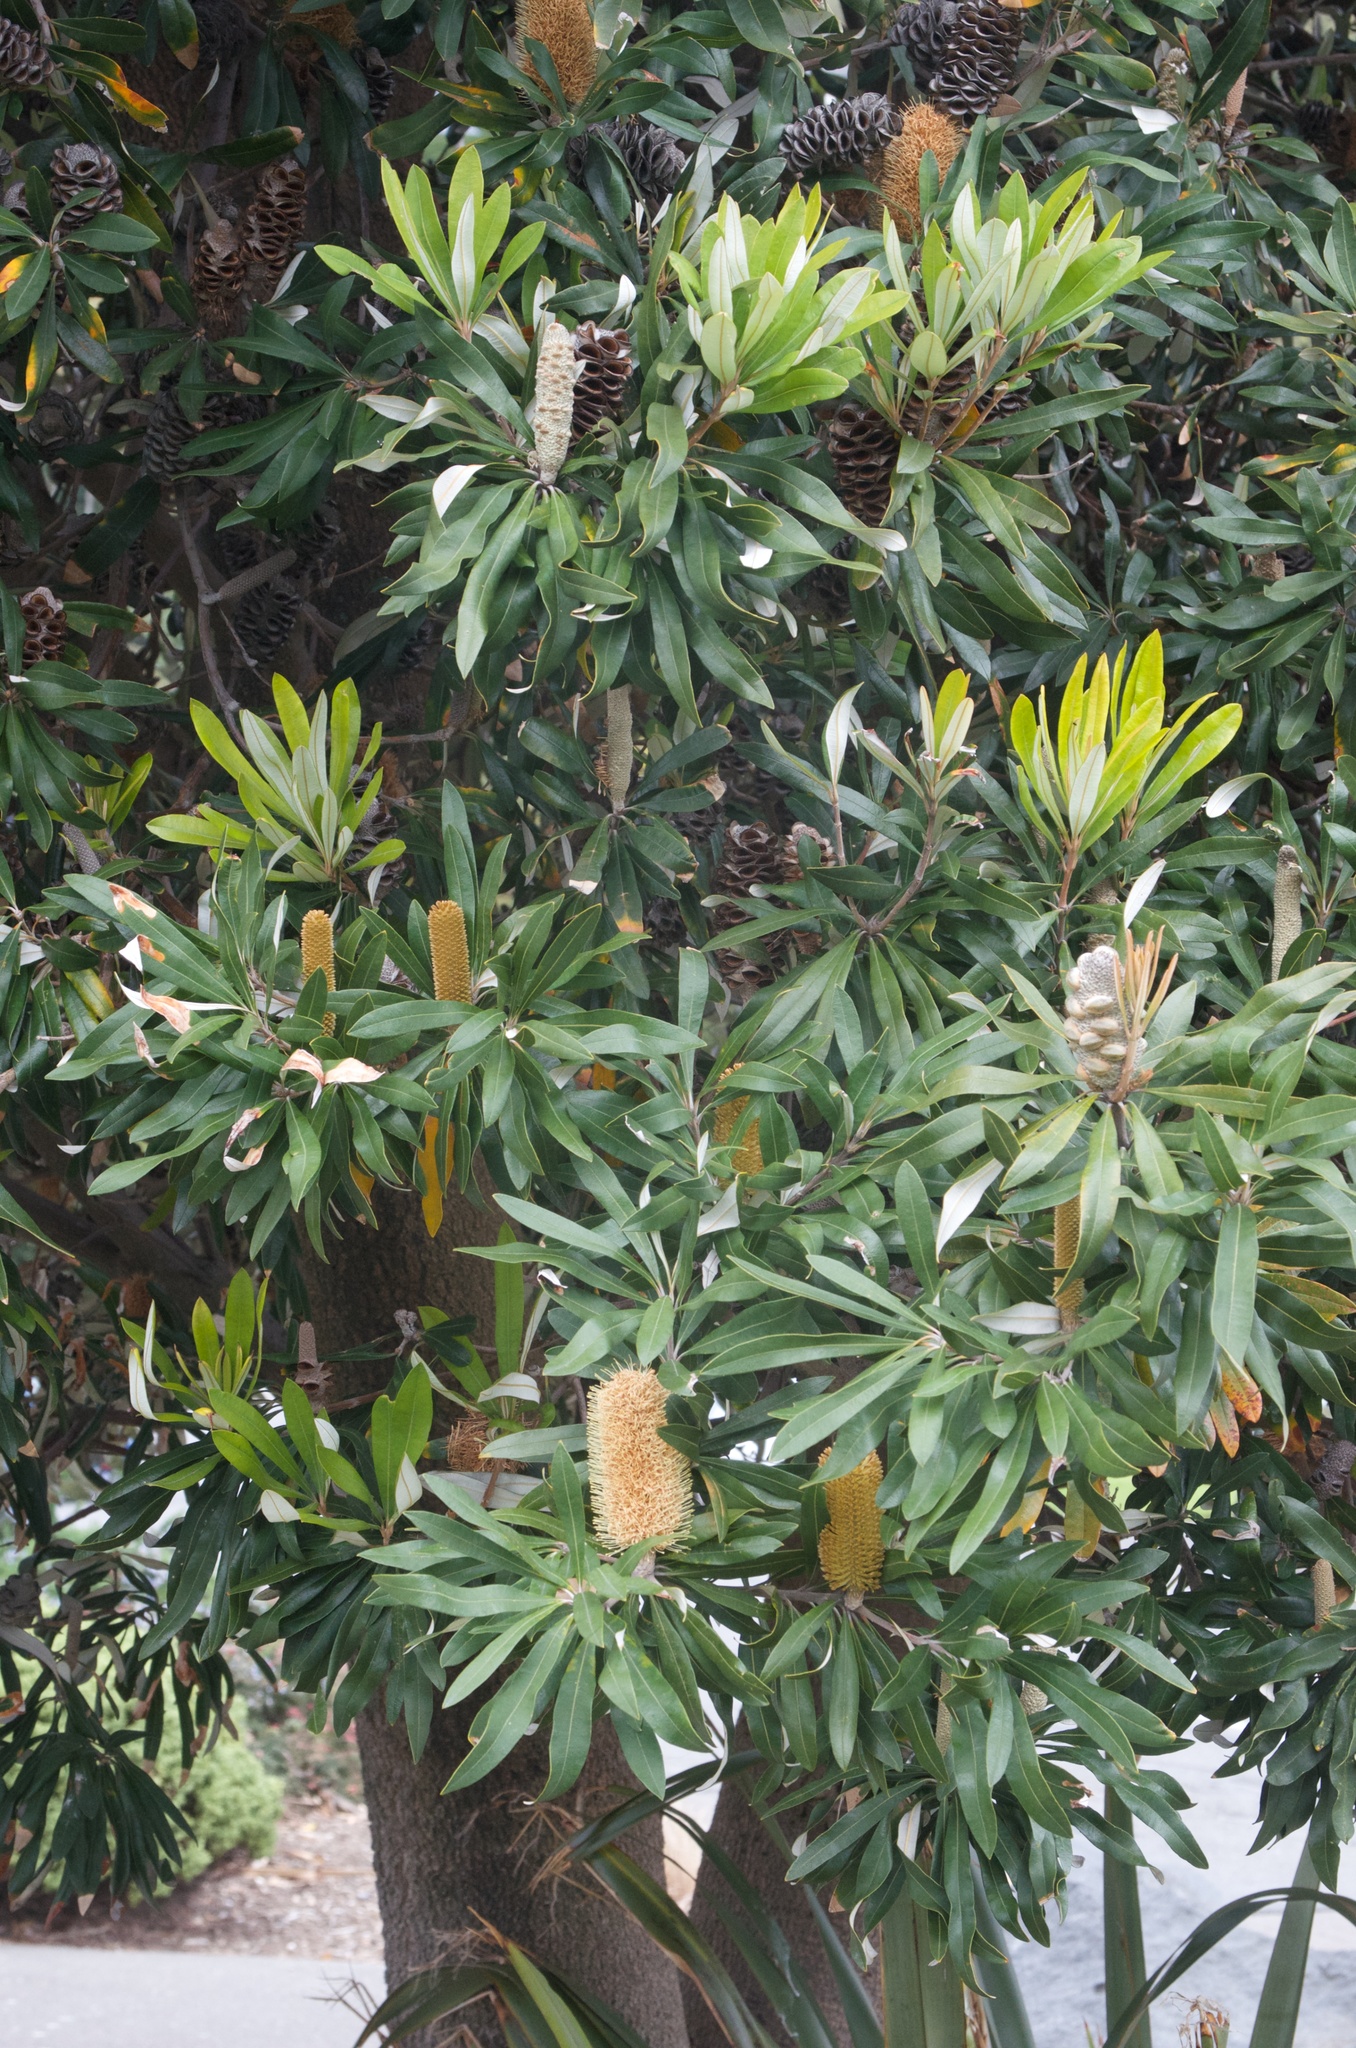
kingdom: Plantae
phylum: Tracheophyta
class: Magnoliopsida
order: Proteales
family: Proteaceae
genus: Banksia
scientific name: Banksia integrifolia
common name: White-honeysuckle
